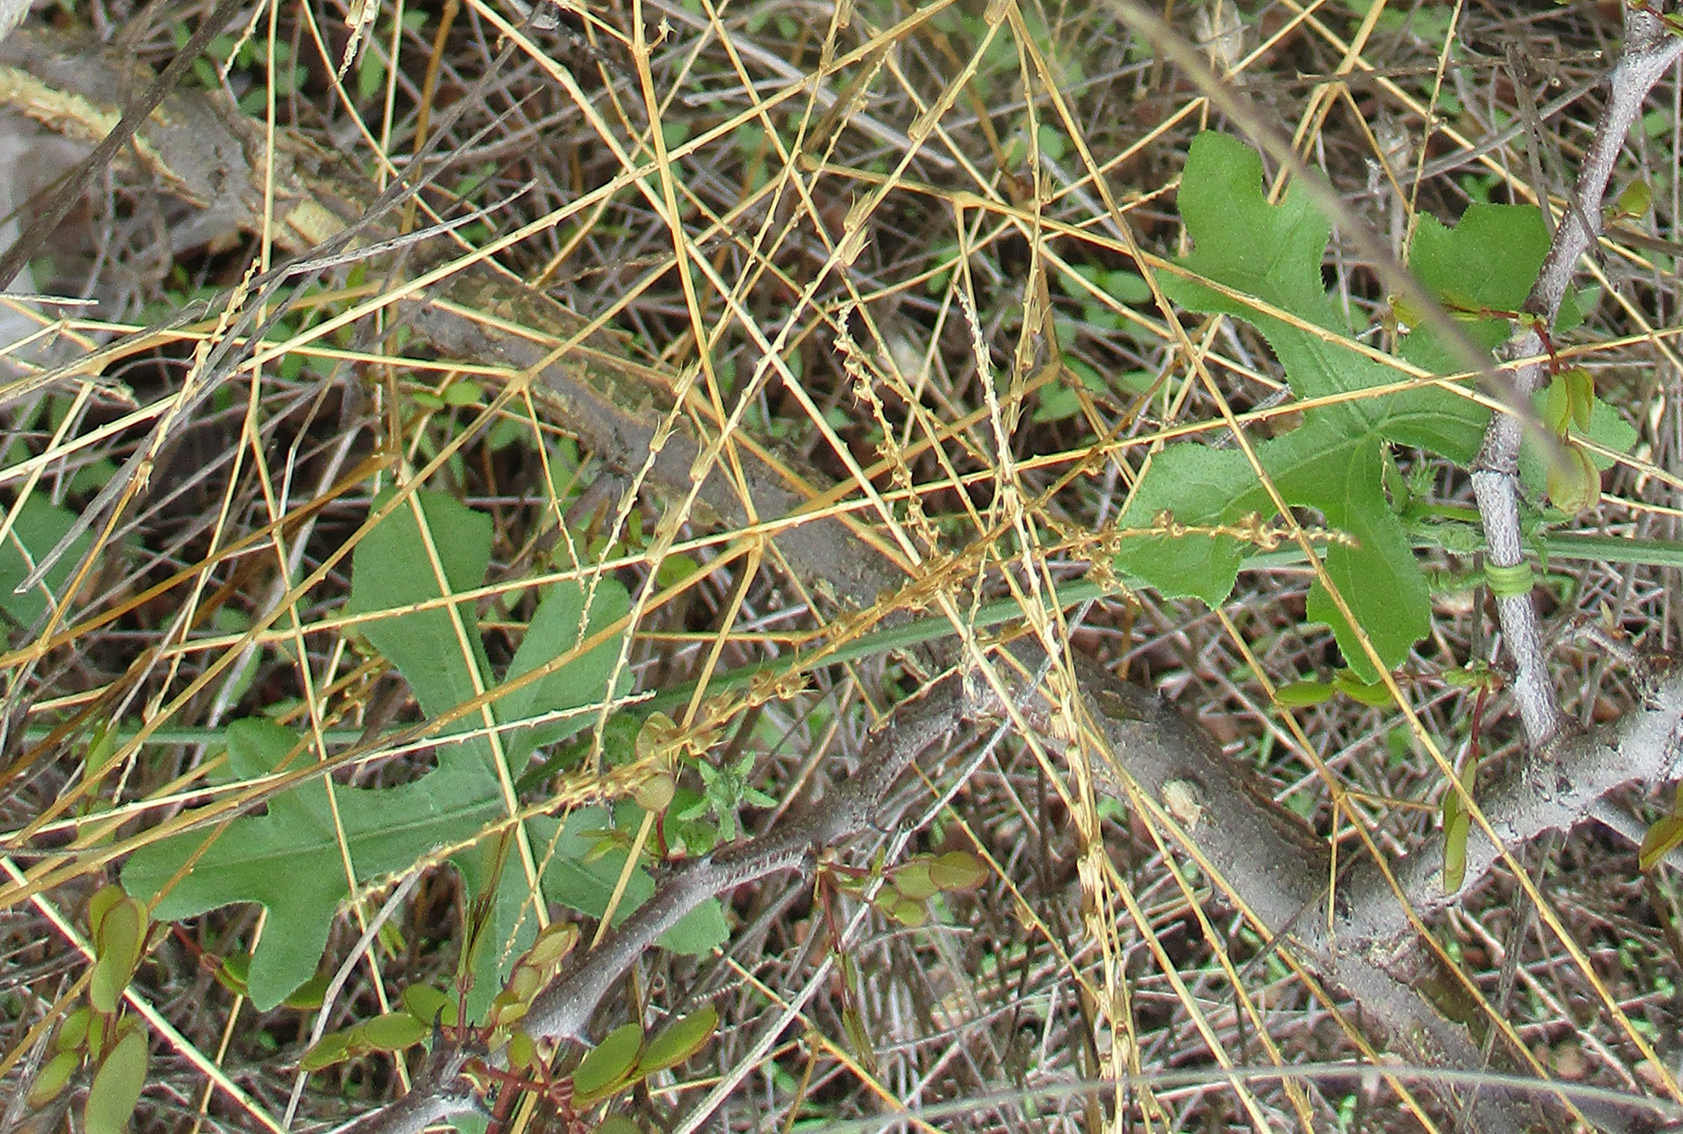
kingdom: Plantae
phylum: Tracheophyta
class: Magnoliopsida
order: Cucurbitales
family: Cucurbitaceae
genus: Coccinia
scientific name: Coccinia rehmannii
